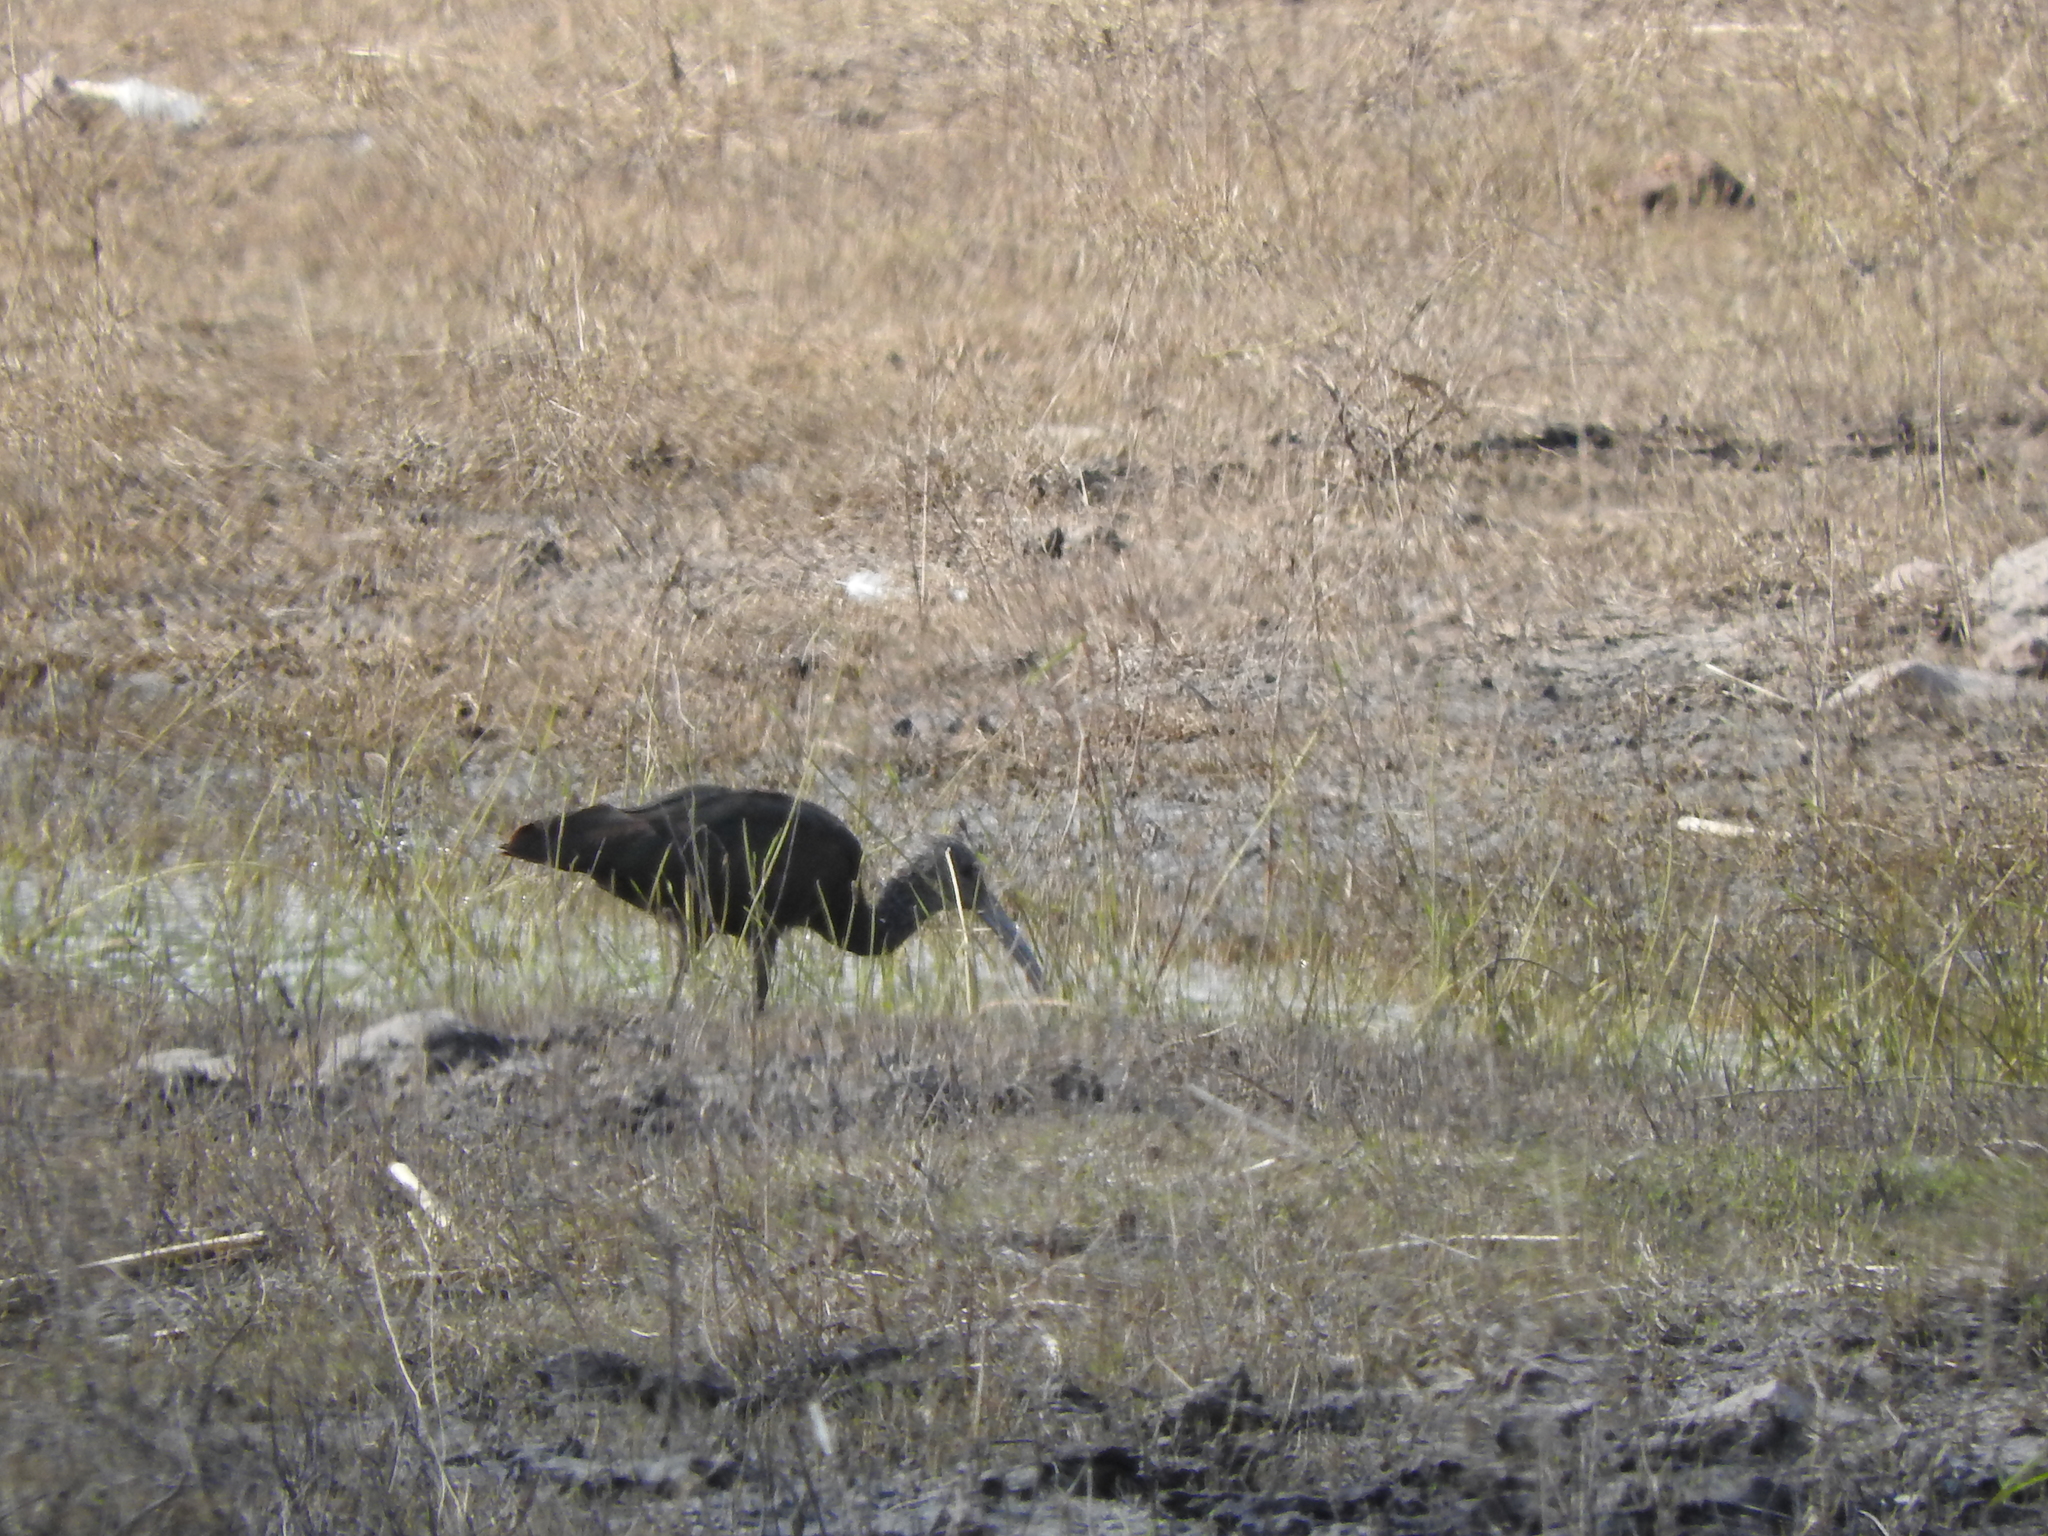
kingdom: Animalia
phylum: Chordata
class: Aves
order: Pelecaniformes
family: Threskiornithidae
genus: Plegadis
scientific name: Plegadis chihi
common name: White-faced ibis
